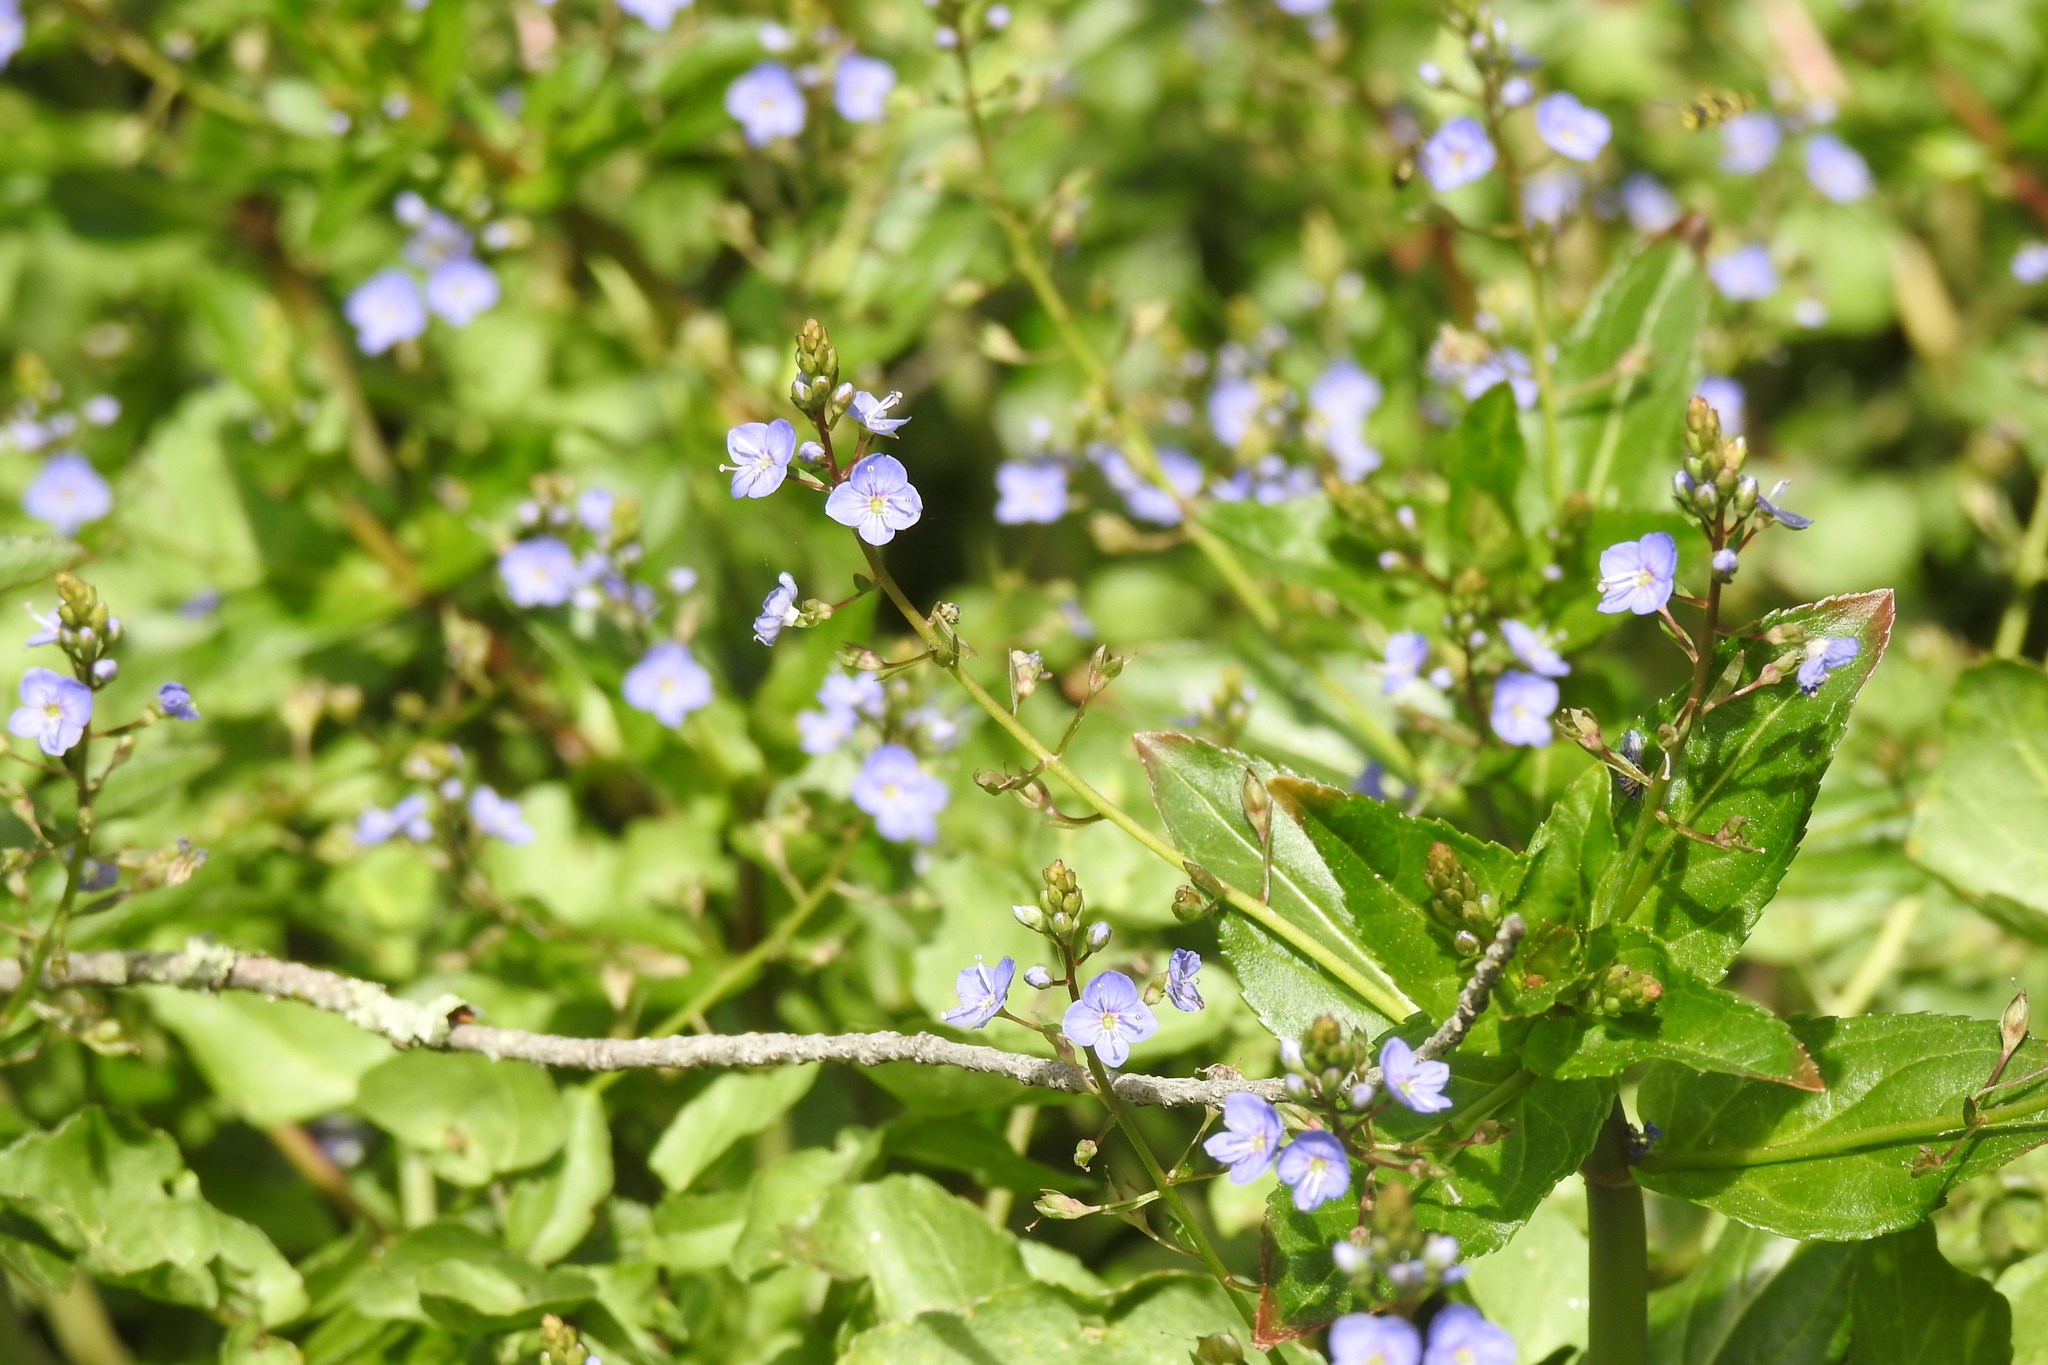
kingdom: Plantae
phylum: Tracheophyta
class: Magnoliopsida
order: Lamiales
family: Plantaginaceae
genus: Veronica
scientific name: Veronica americana
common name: American brooklime
